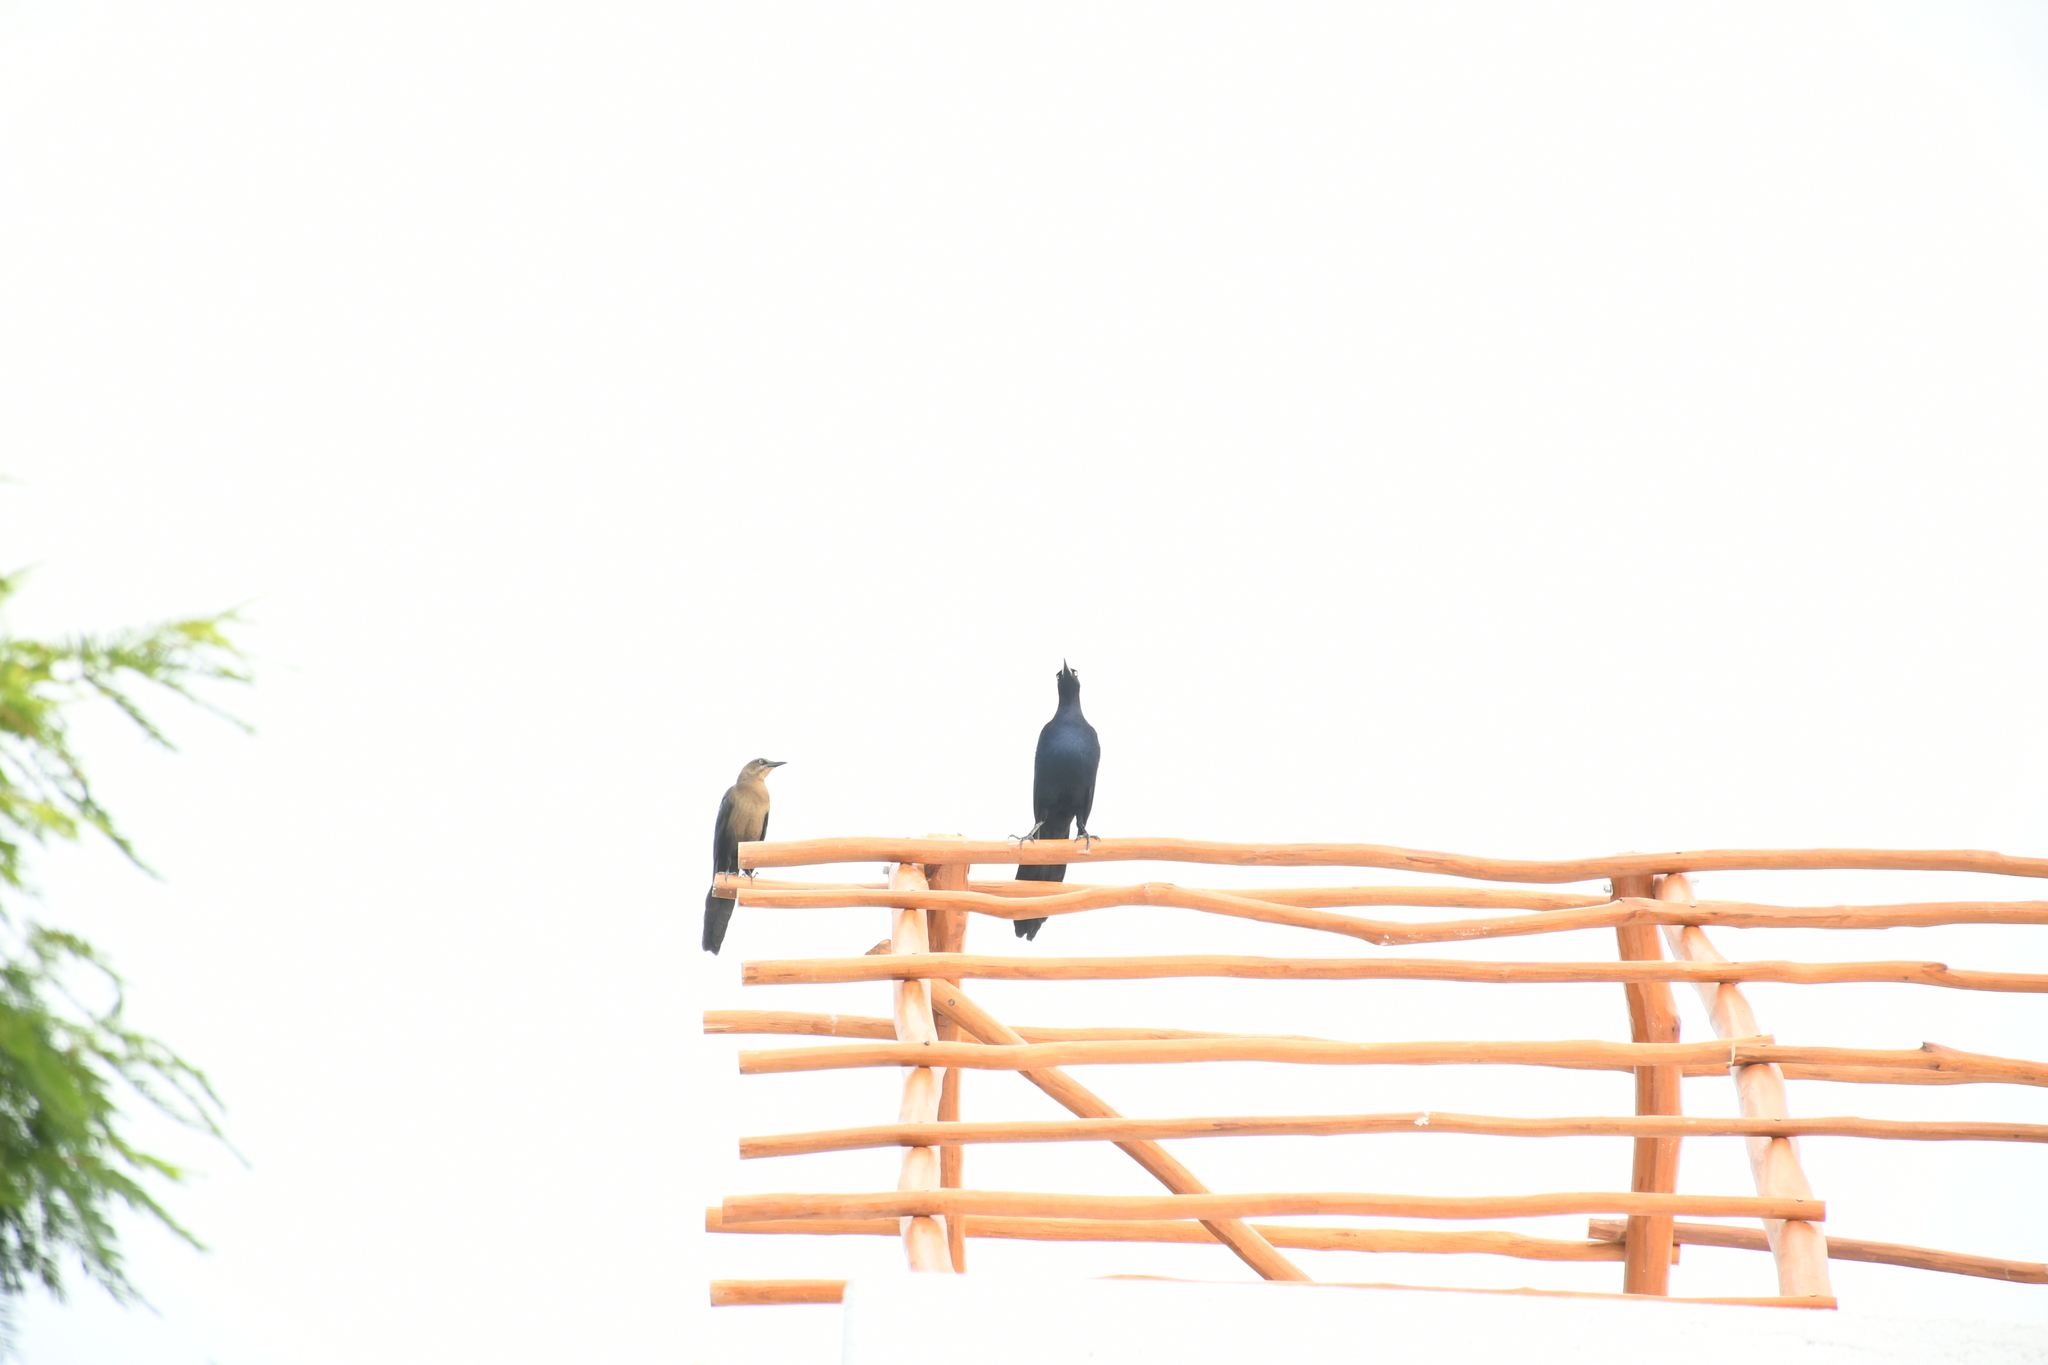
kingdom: Animalia
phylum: Chordata
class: Aves
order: Passeriformes
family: Icteridae
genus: Quiscalus
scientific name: Quiscalus mexicanus
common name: Great-tailed grackle
